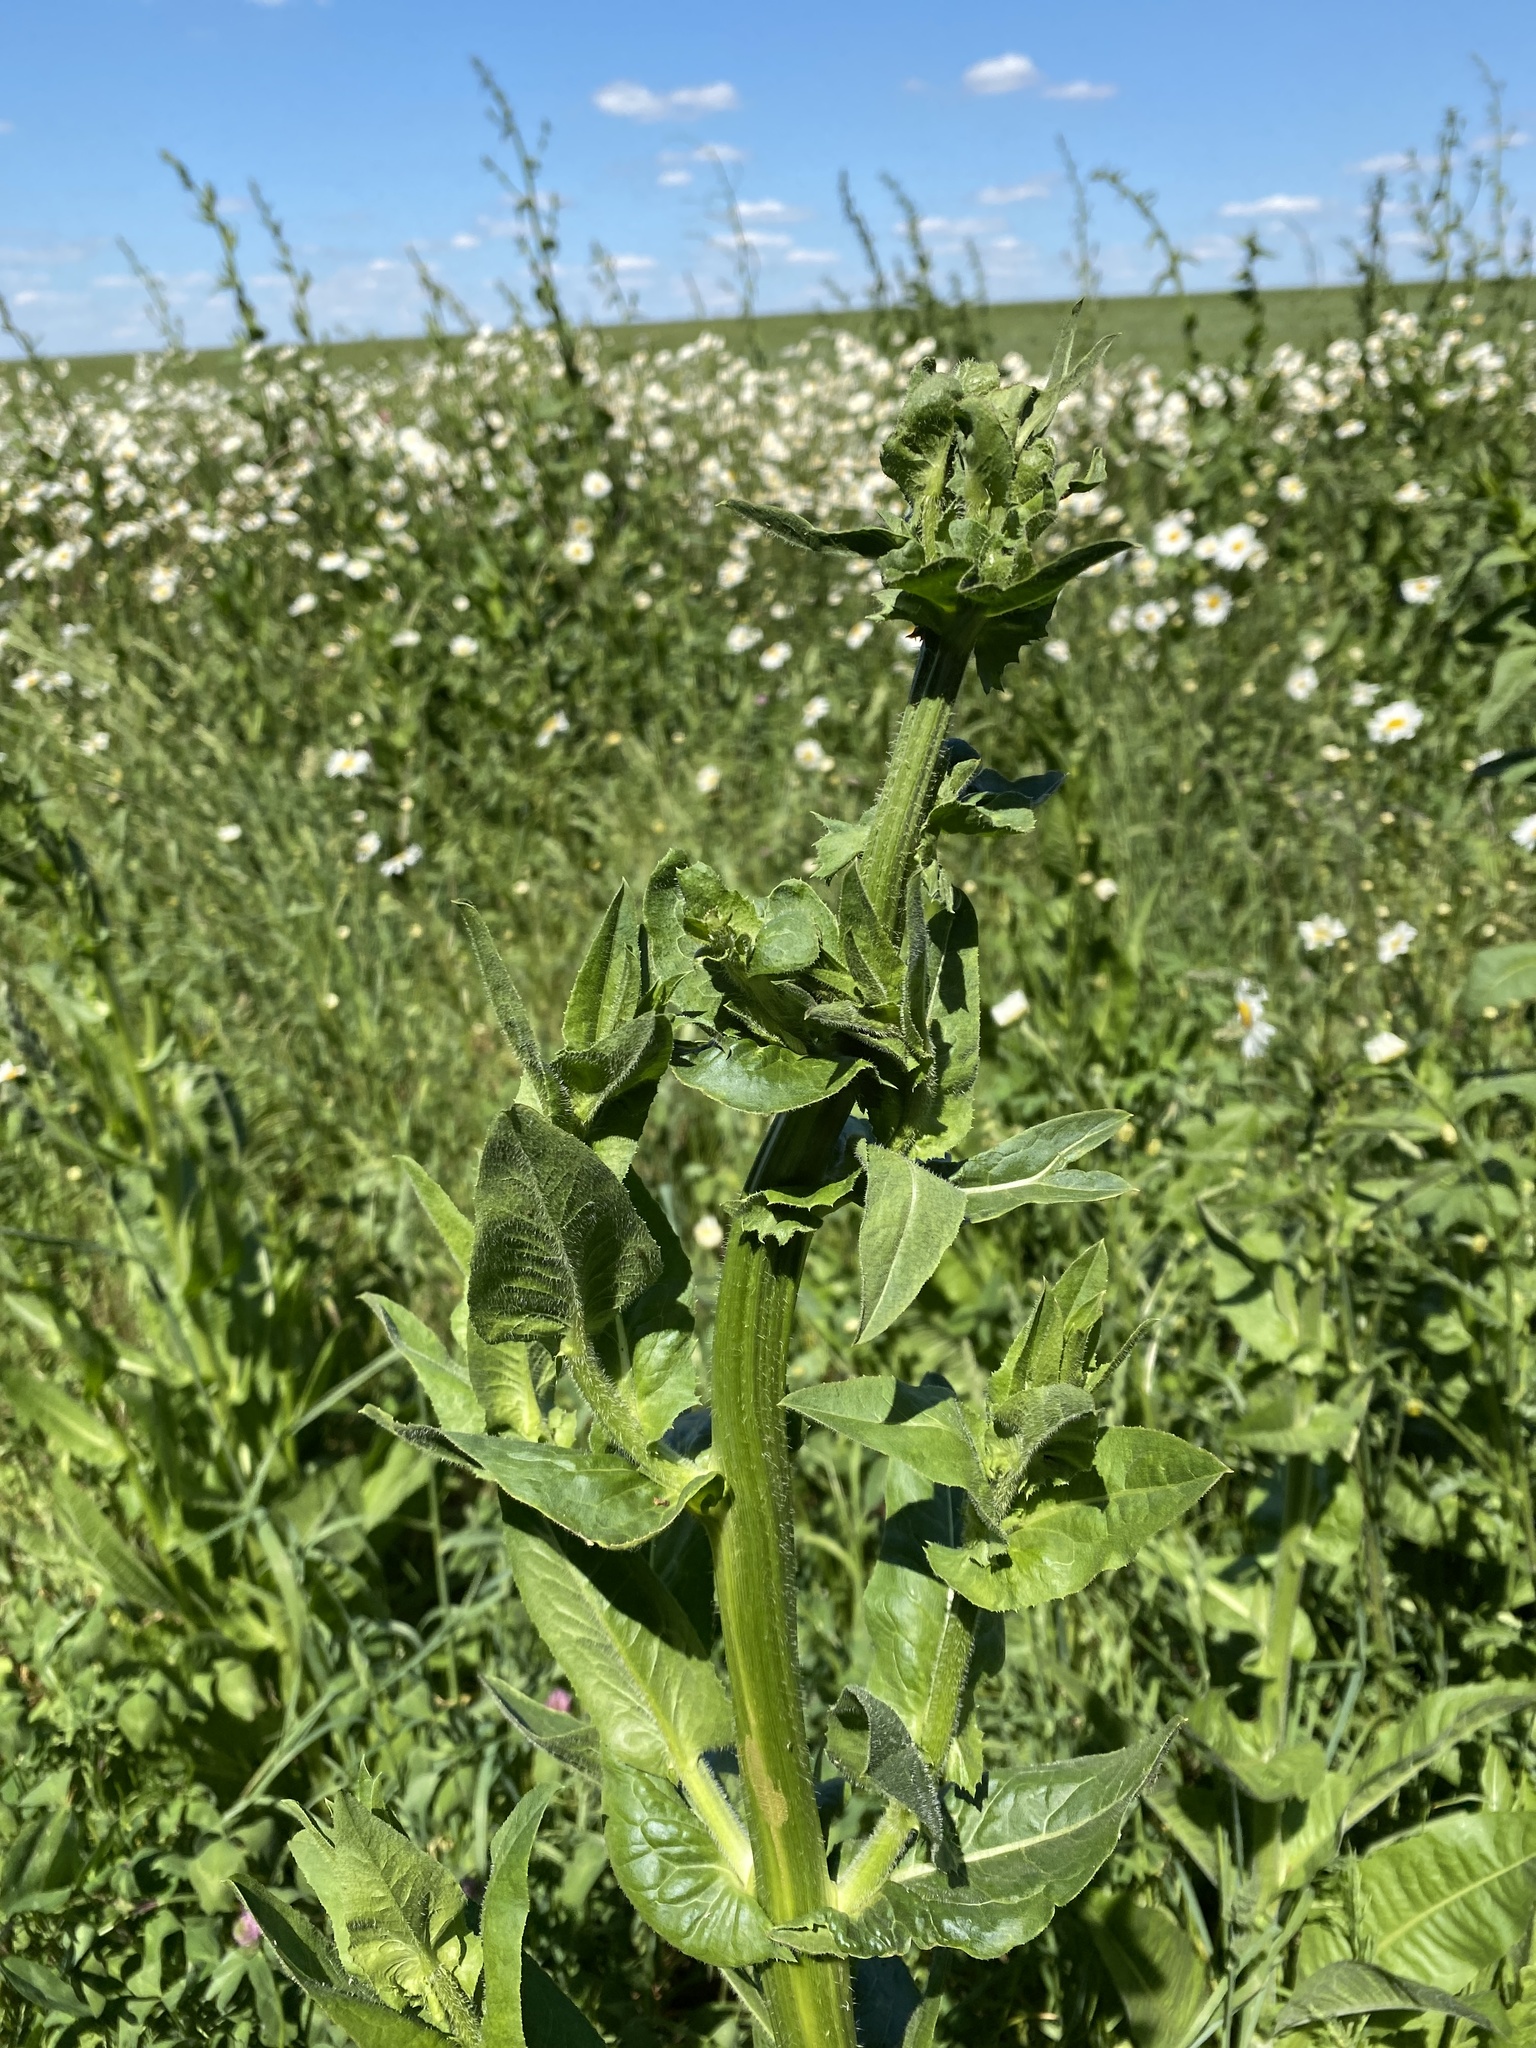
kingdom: Plantae
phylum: Tracheophyta
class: Magnoliopsida
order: Brassicales
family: Brassicaceae
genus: Bunias
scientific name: Bunias orientalis
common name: Warty-cabbage
